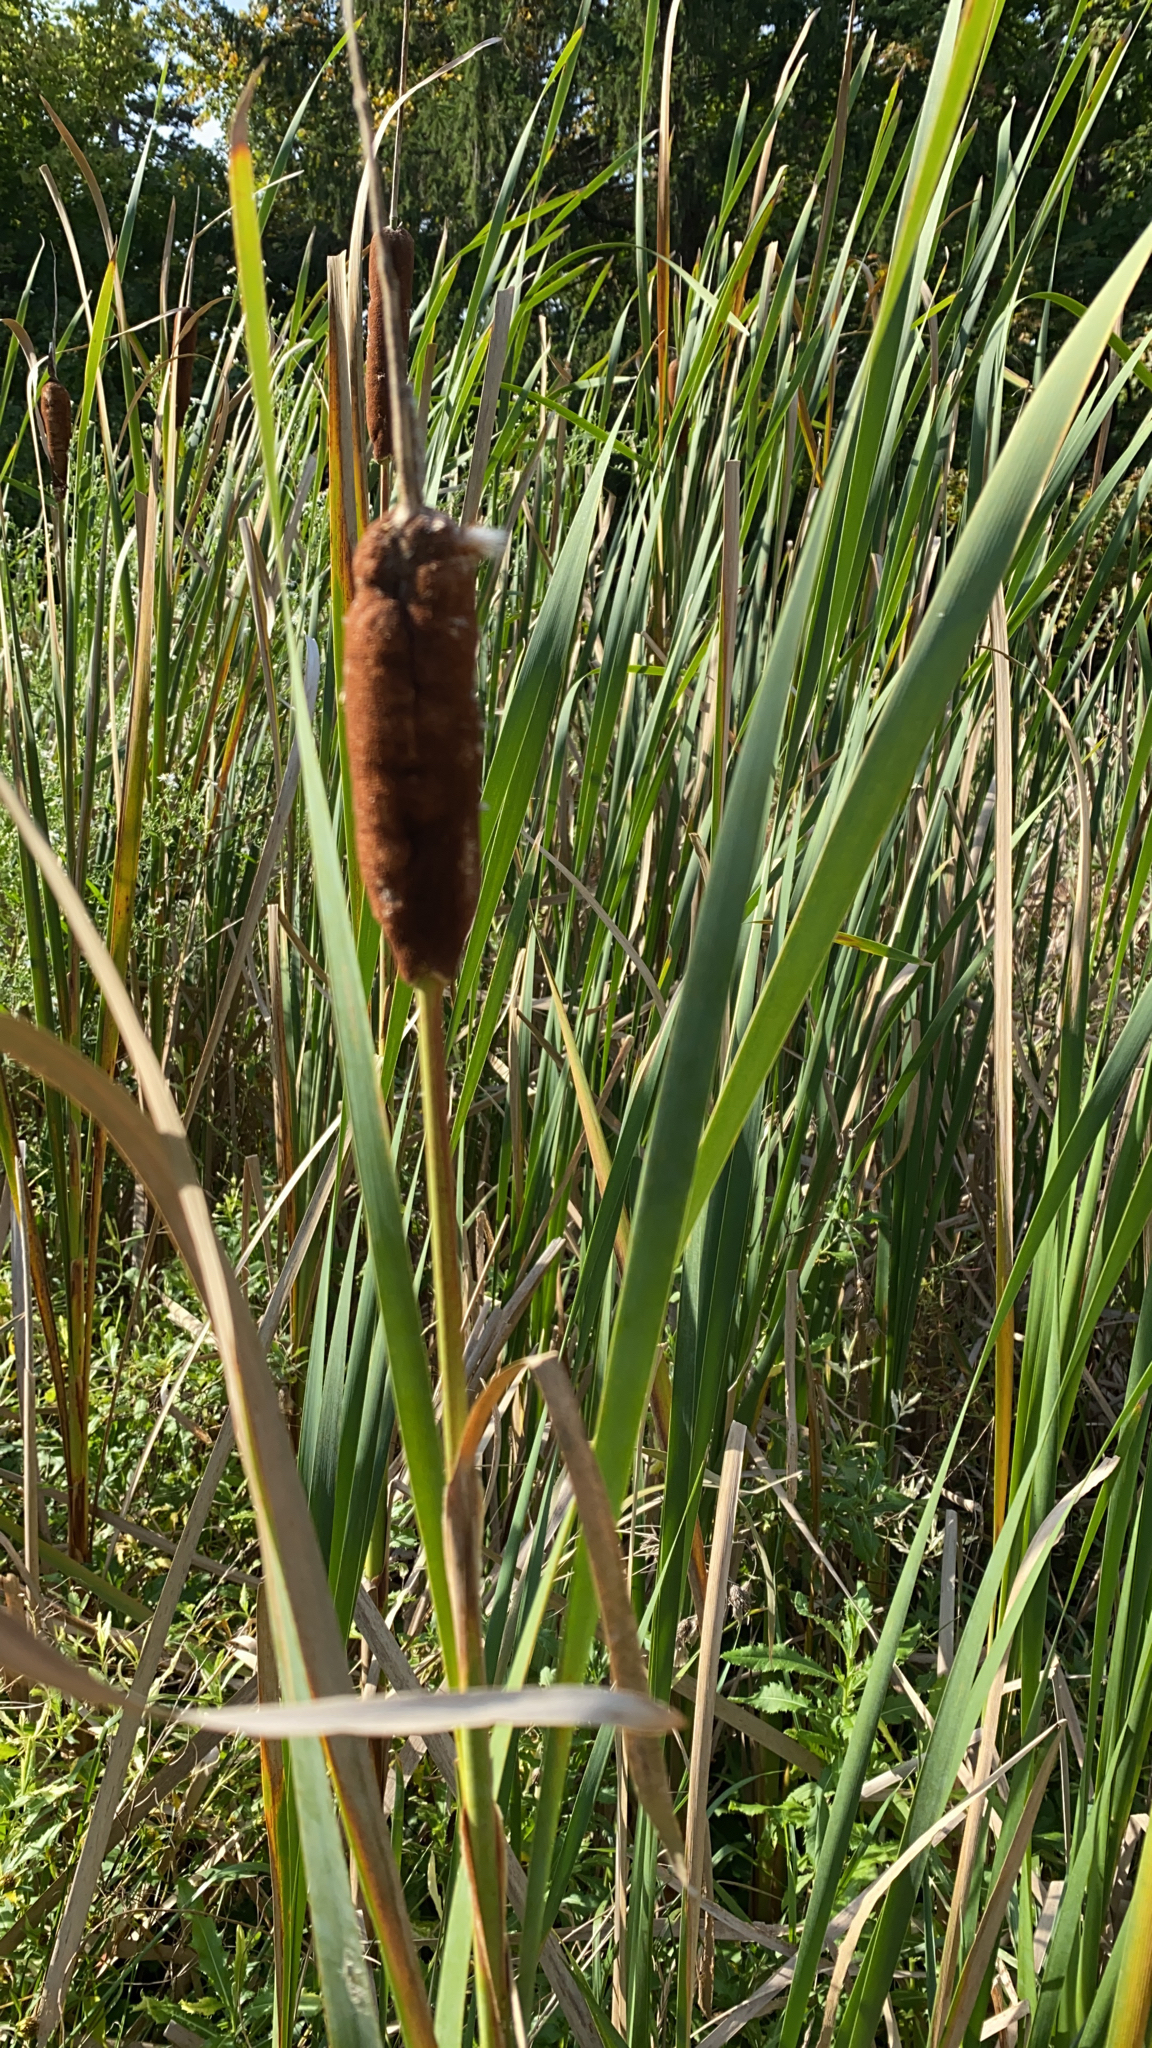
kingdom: Plantae
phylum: Tracheophyta
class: Liliopsida
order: Poales
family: Typhaceae
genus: Typha
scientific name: Typha latifolia
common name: Broadleaf cattail
